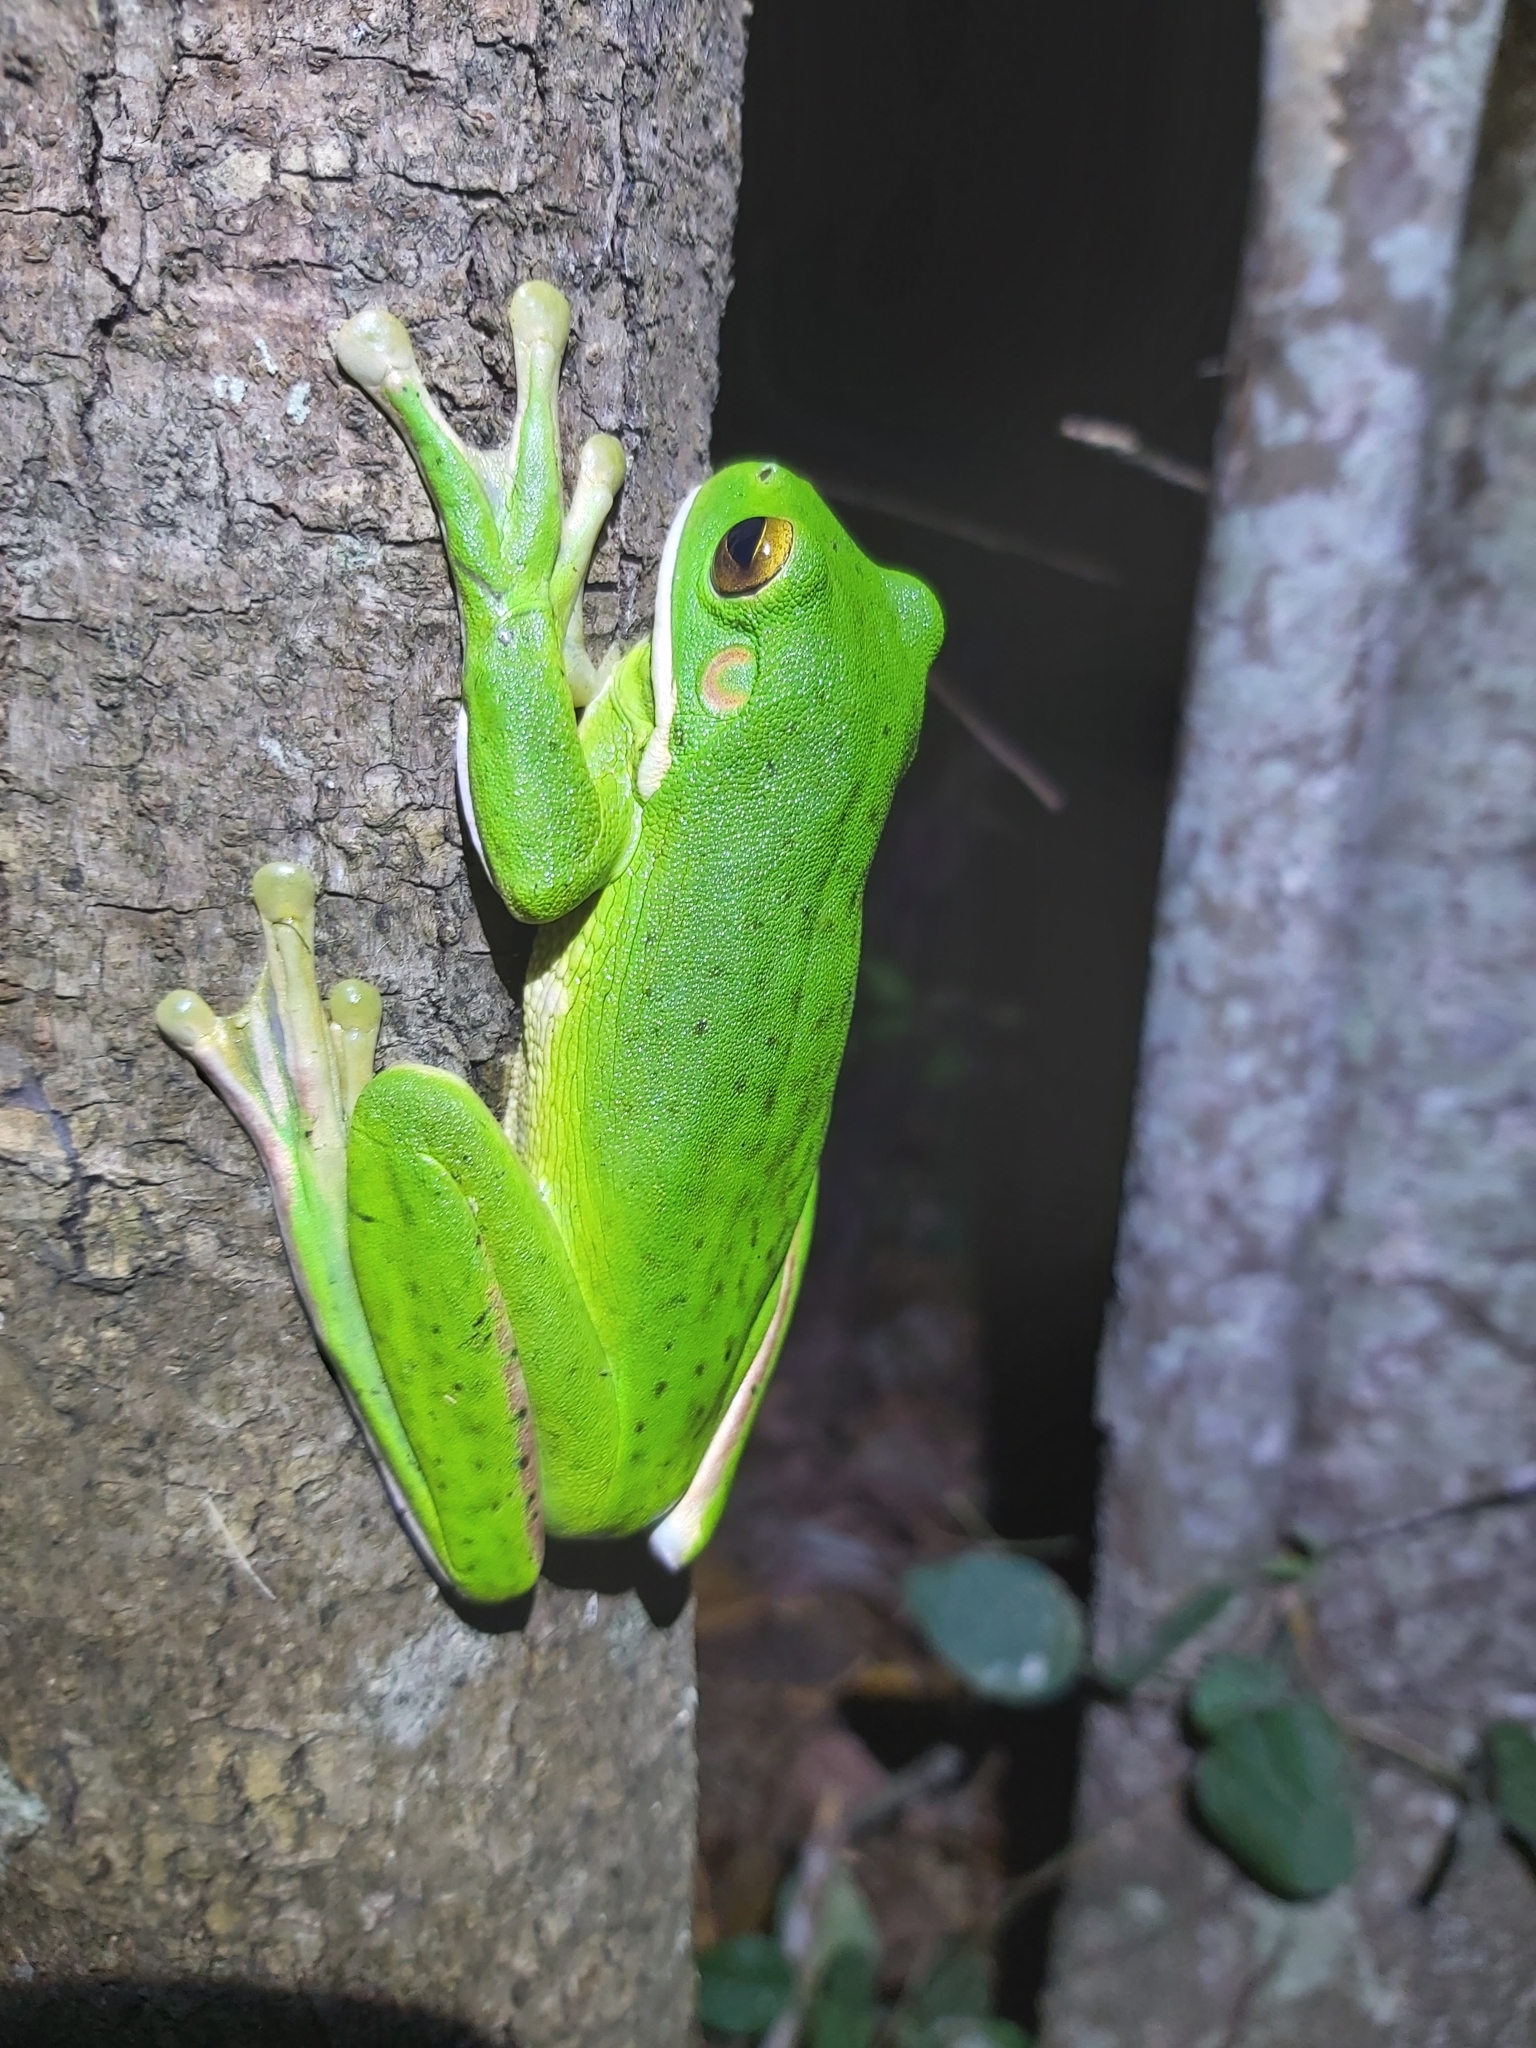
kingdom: Animalia
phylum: Chordata
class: Amphibia
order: Anura
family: Pelodryadidae
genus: Nyctimystes
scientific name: Nyctimystes infrafrenatus
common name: Australian giant treefrog
